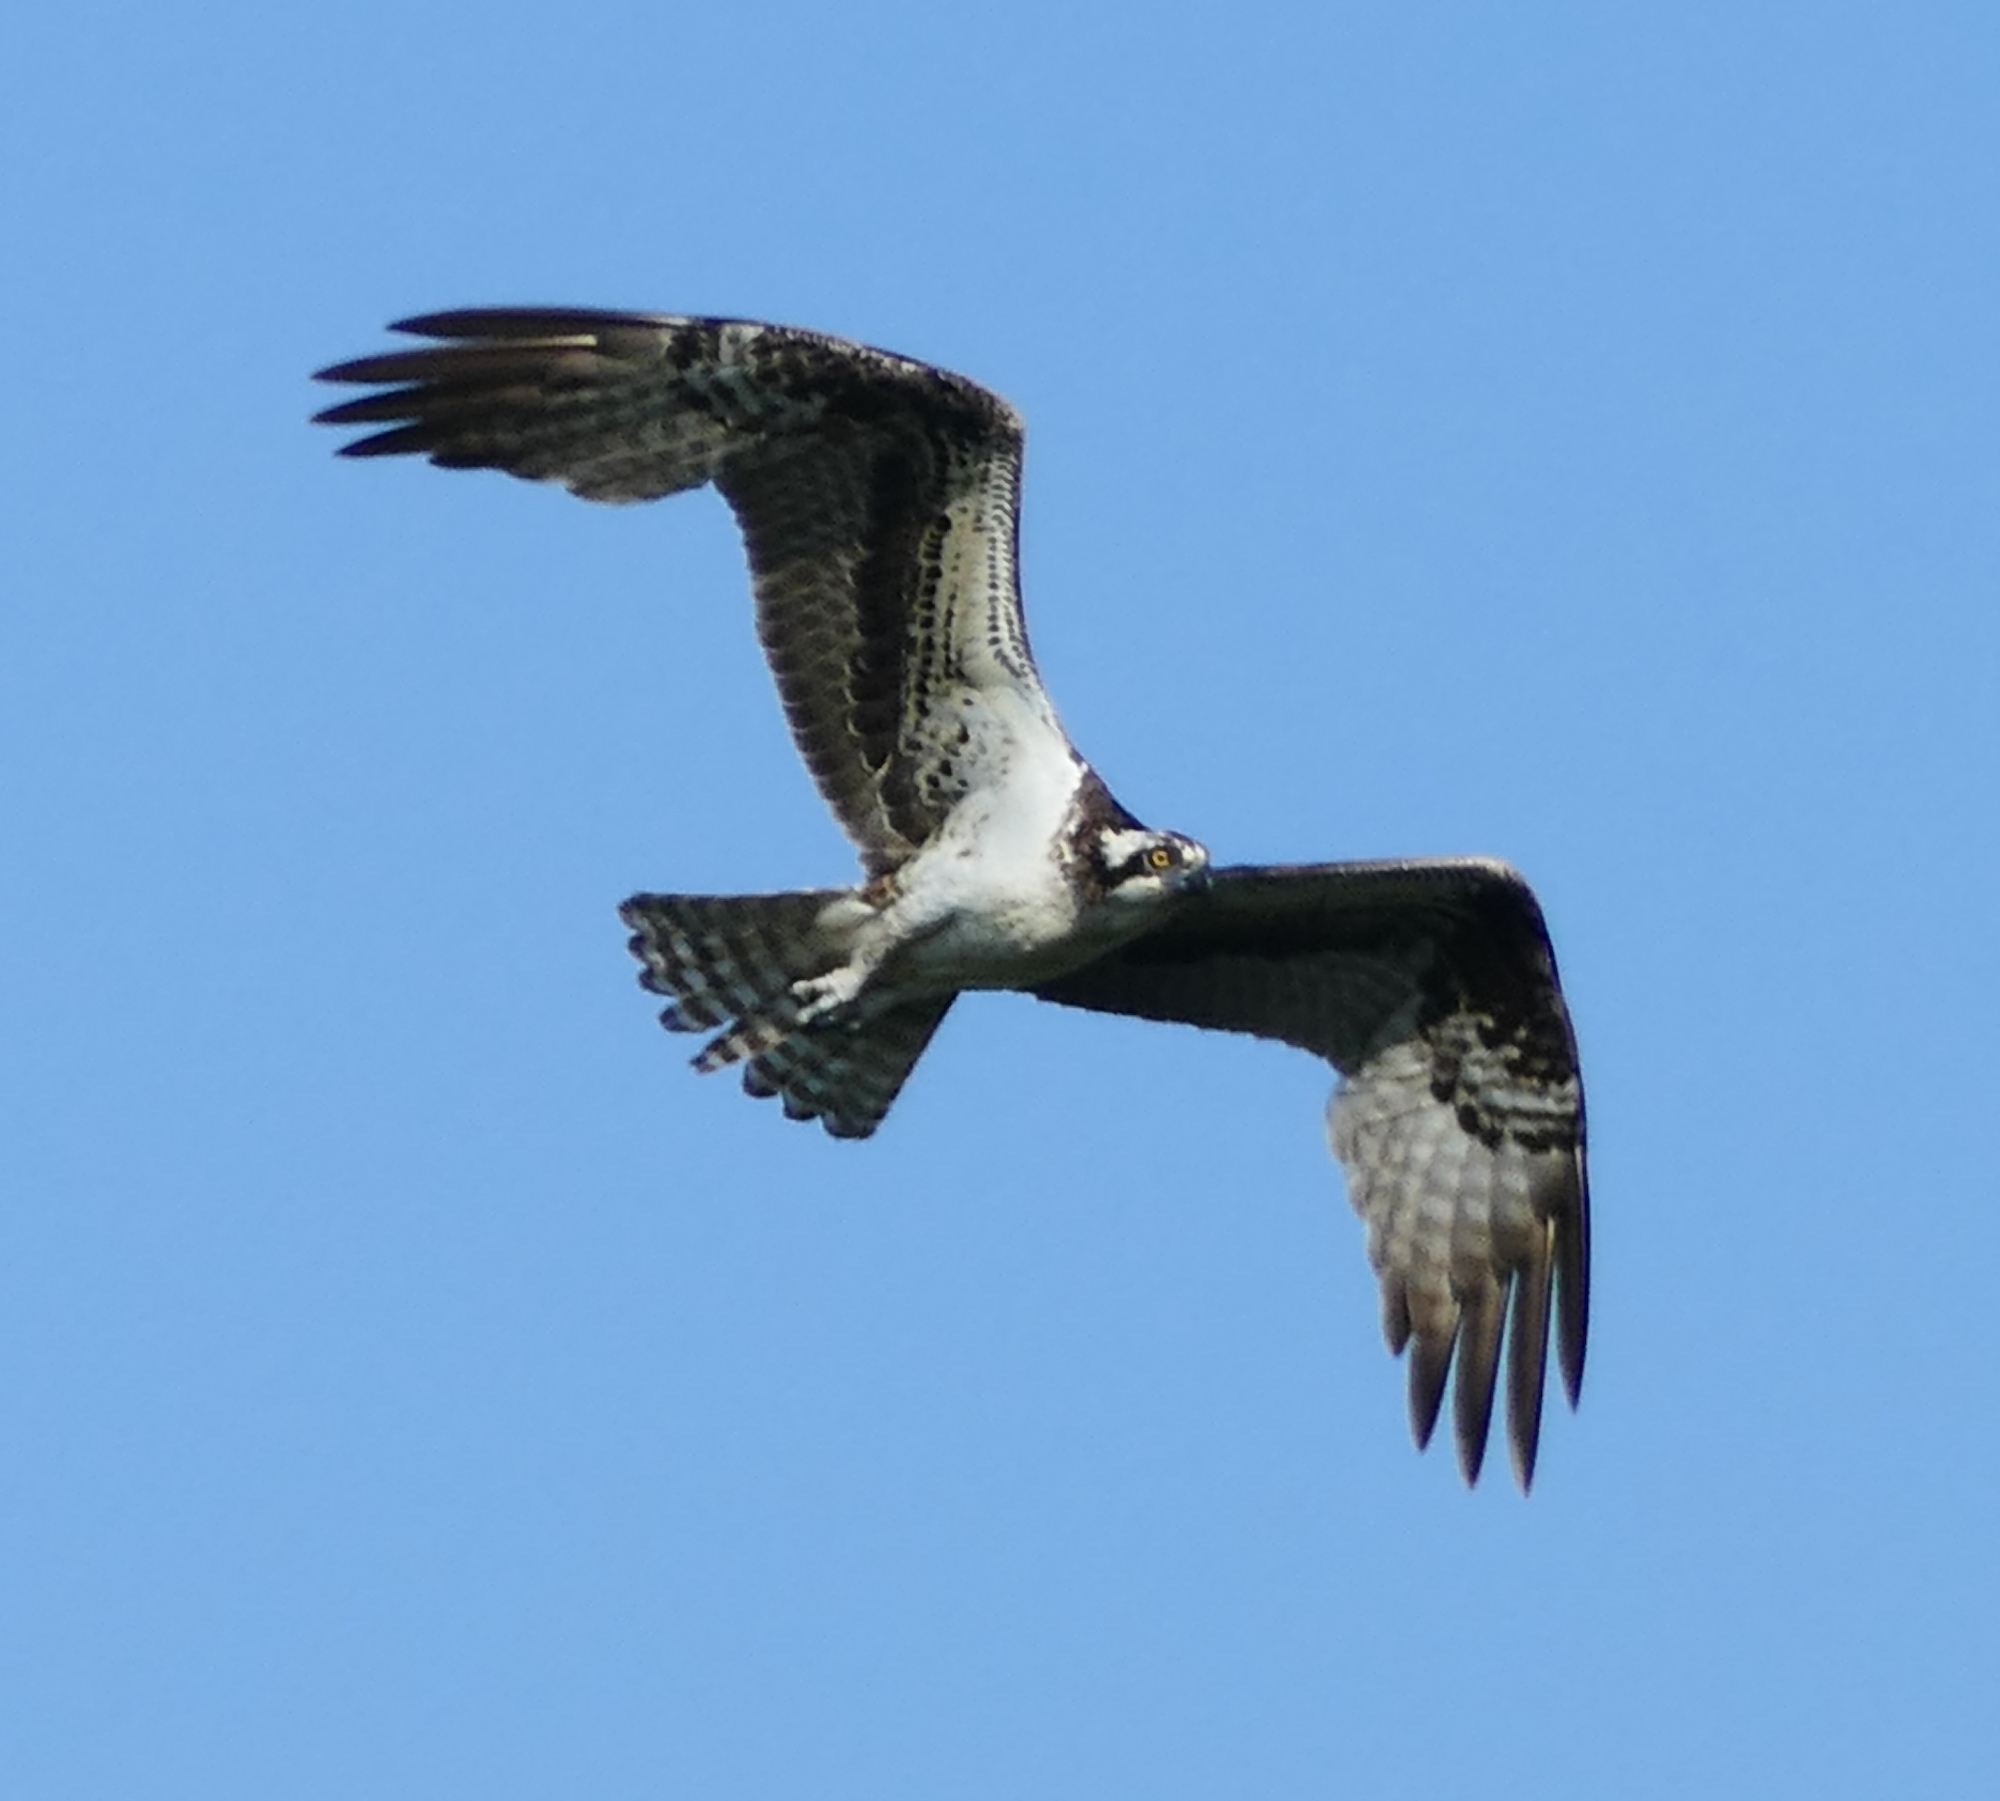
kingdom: Animalia
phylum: Chordata
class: Aves
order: Accipitriformes
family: Pandionidae
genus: Pandion
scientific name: Pandion haliaetus
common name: Osprey
